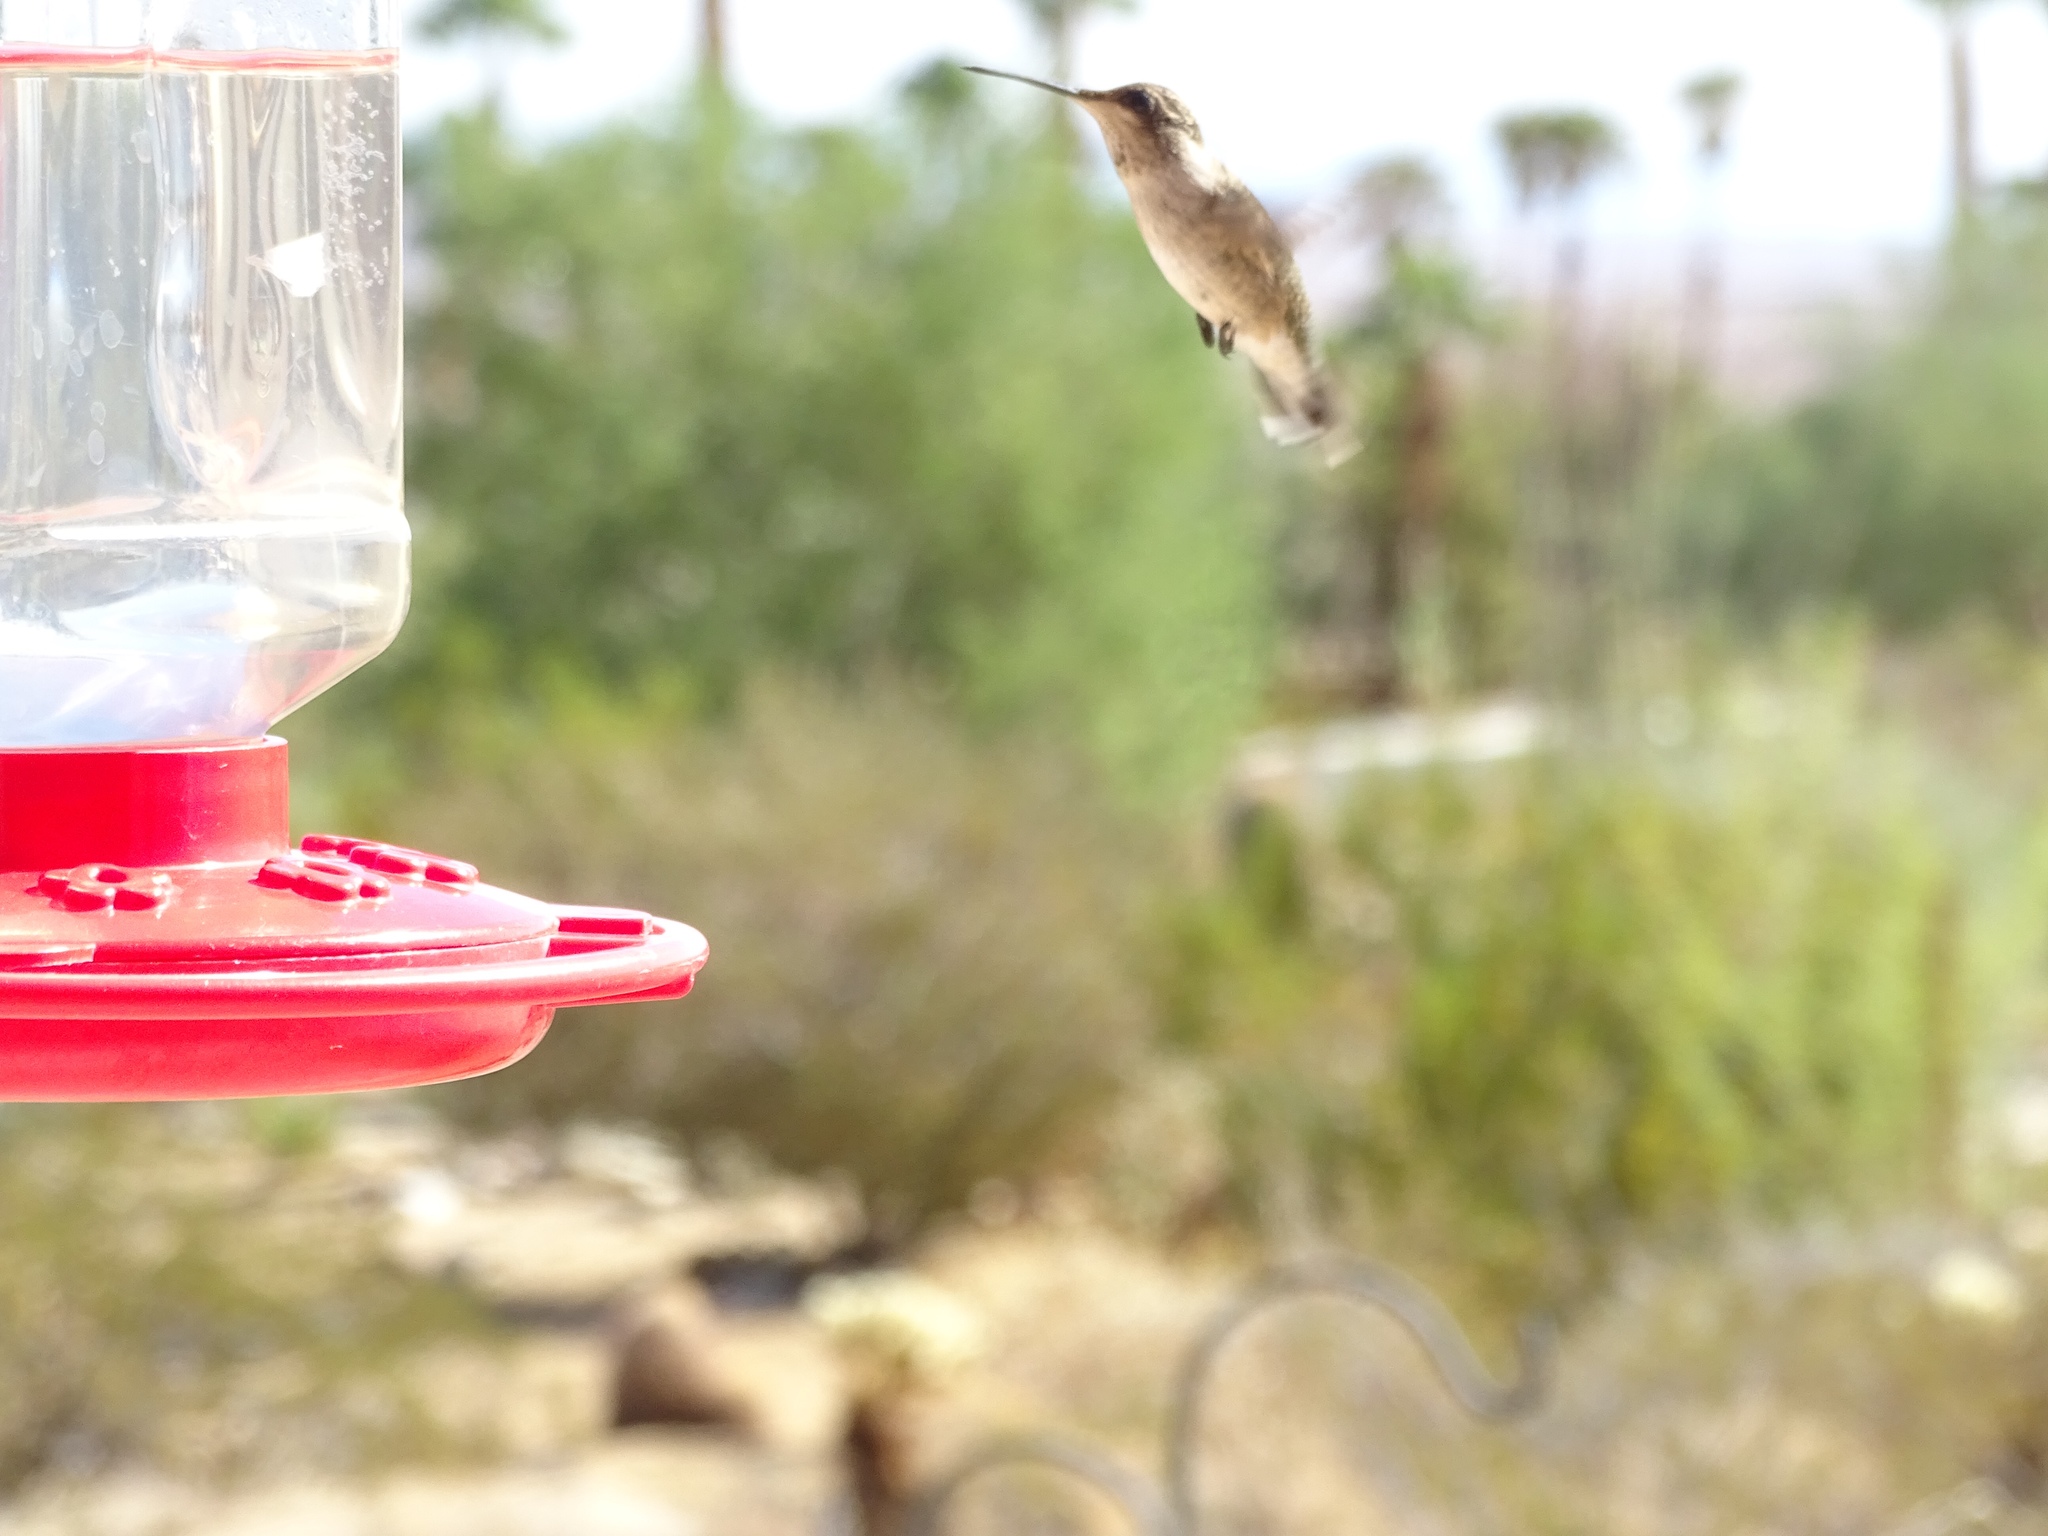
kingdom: Animalia
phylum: Chordata
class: Aves
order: Apodiformes
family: Trochilidae
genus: Archilochus
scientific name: Archilochus alexandri
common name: Black-chinned hummingbird
